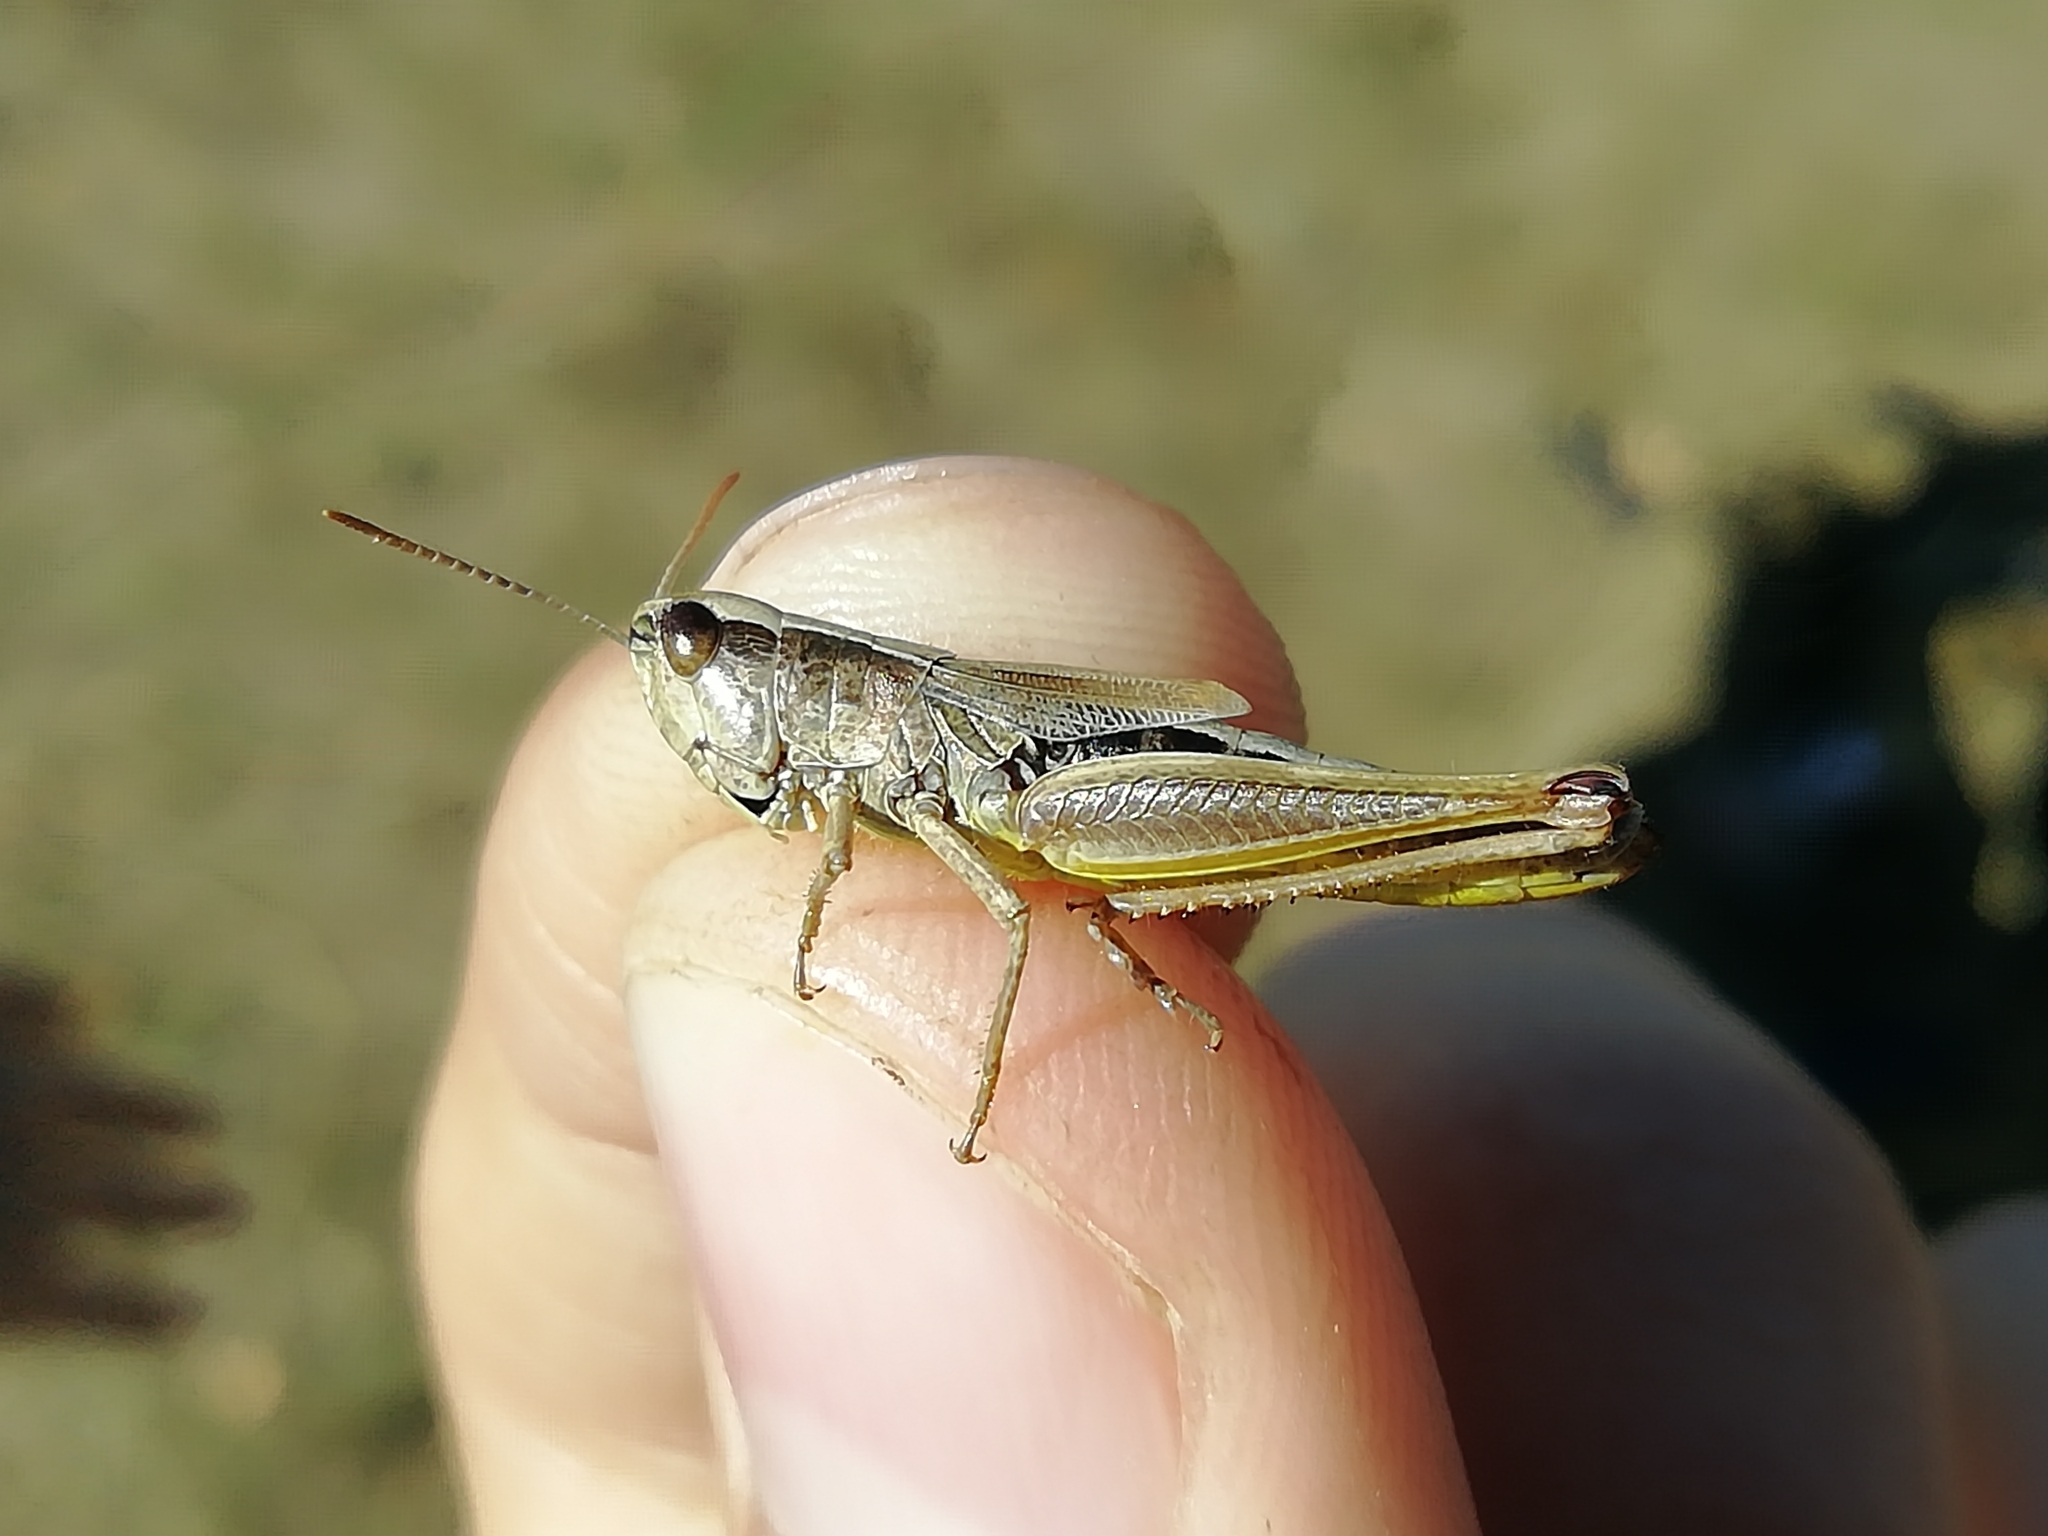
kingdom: Animalia
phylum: Arthropoda
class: Insecta
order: Orthoptera
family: Acrididae
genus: Pseudochorthippus
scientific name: Pseudochorthippus parallelus
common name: Meadow grasshopper
